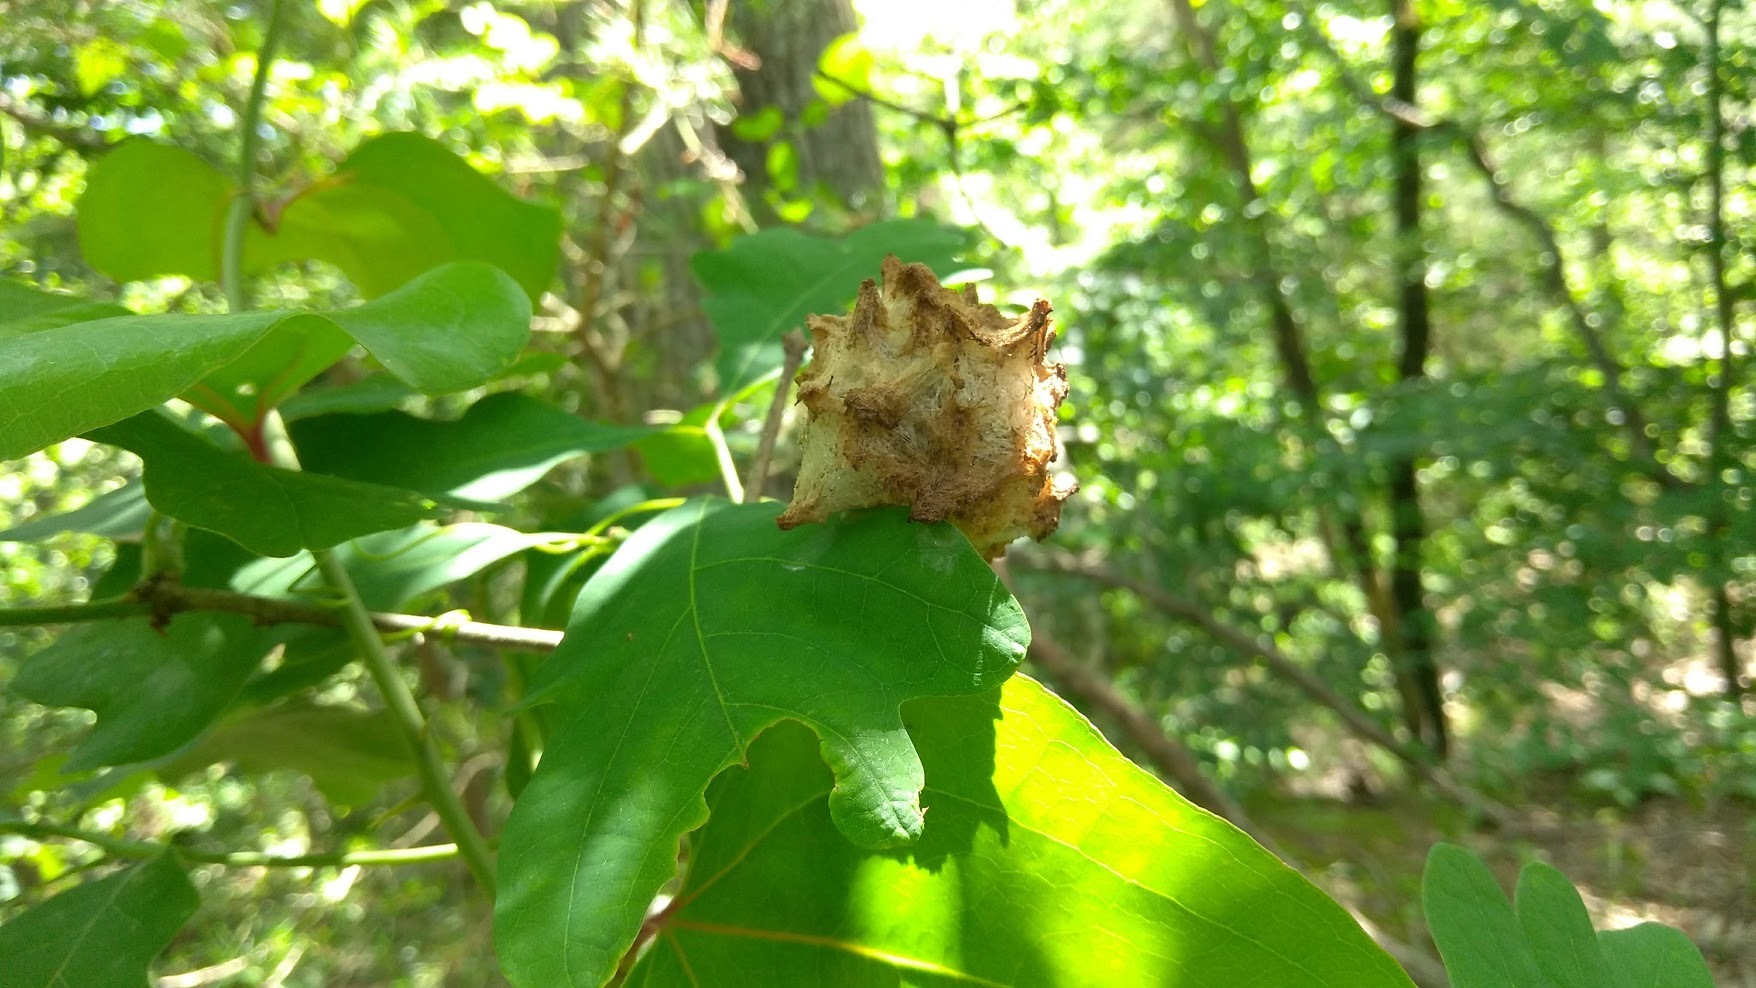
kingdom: Animalia
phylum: Arthropoda
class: Insecta
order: Hymenoptera
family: Cynipidae
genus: Callirhytis
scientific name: Callirhytis
